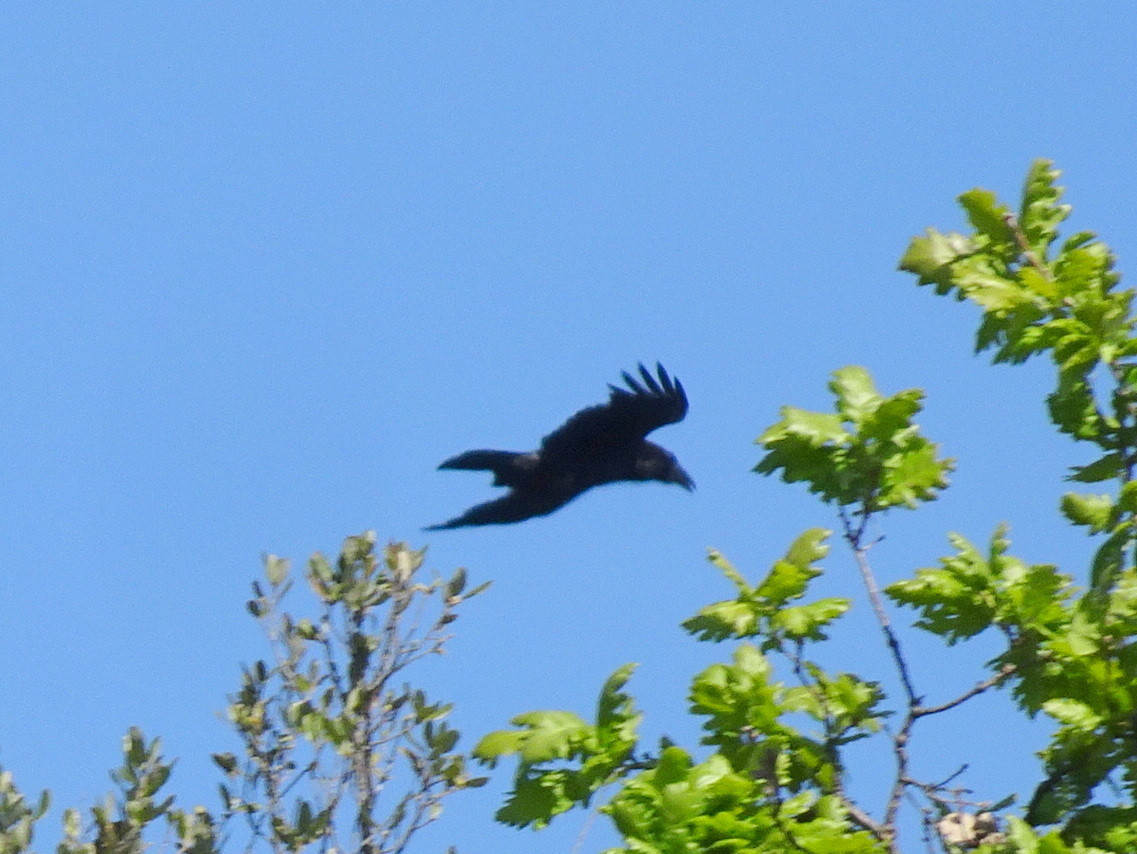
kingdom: Animalia
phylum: Chordata
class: Aves
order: Passeriformes
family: Corvidae
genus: Corvus
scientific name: Corvus corax
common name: Common raven
